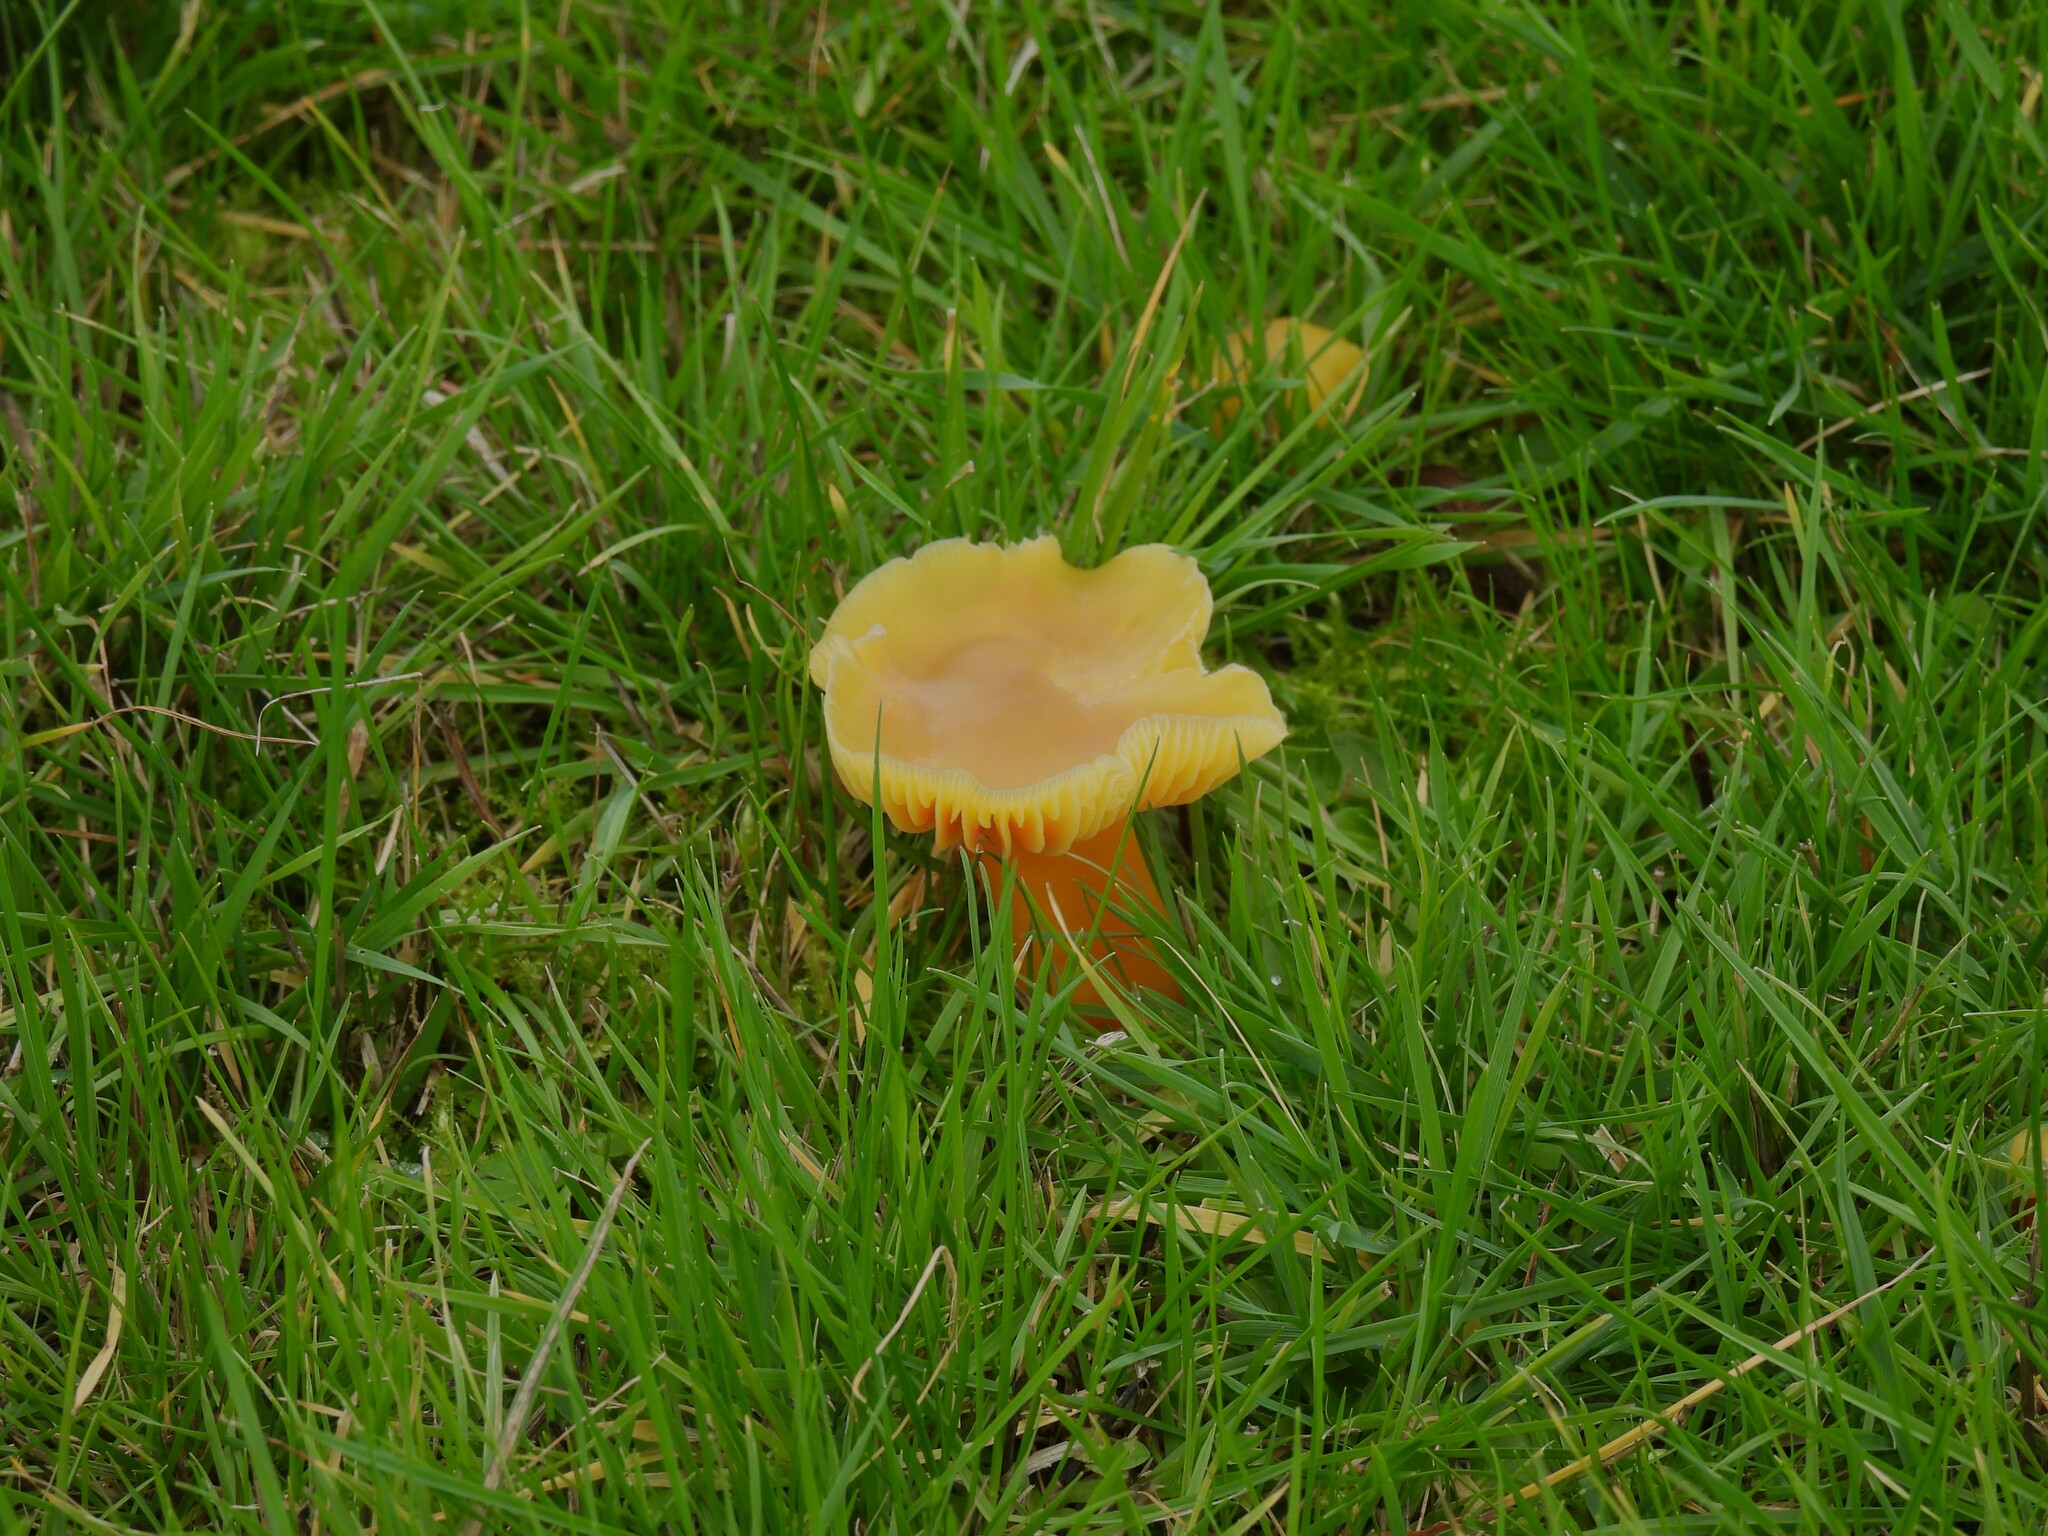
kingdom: Fungi
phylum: Basidiomycota
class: Agaricomycetes
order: Agaricales
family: Hygrophoraceae
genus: Hygrocybe
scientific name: Hygrocybe quieta
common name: Oily waxcap
